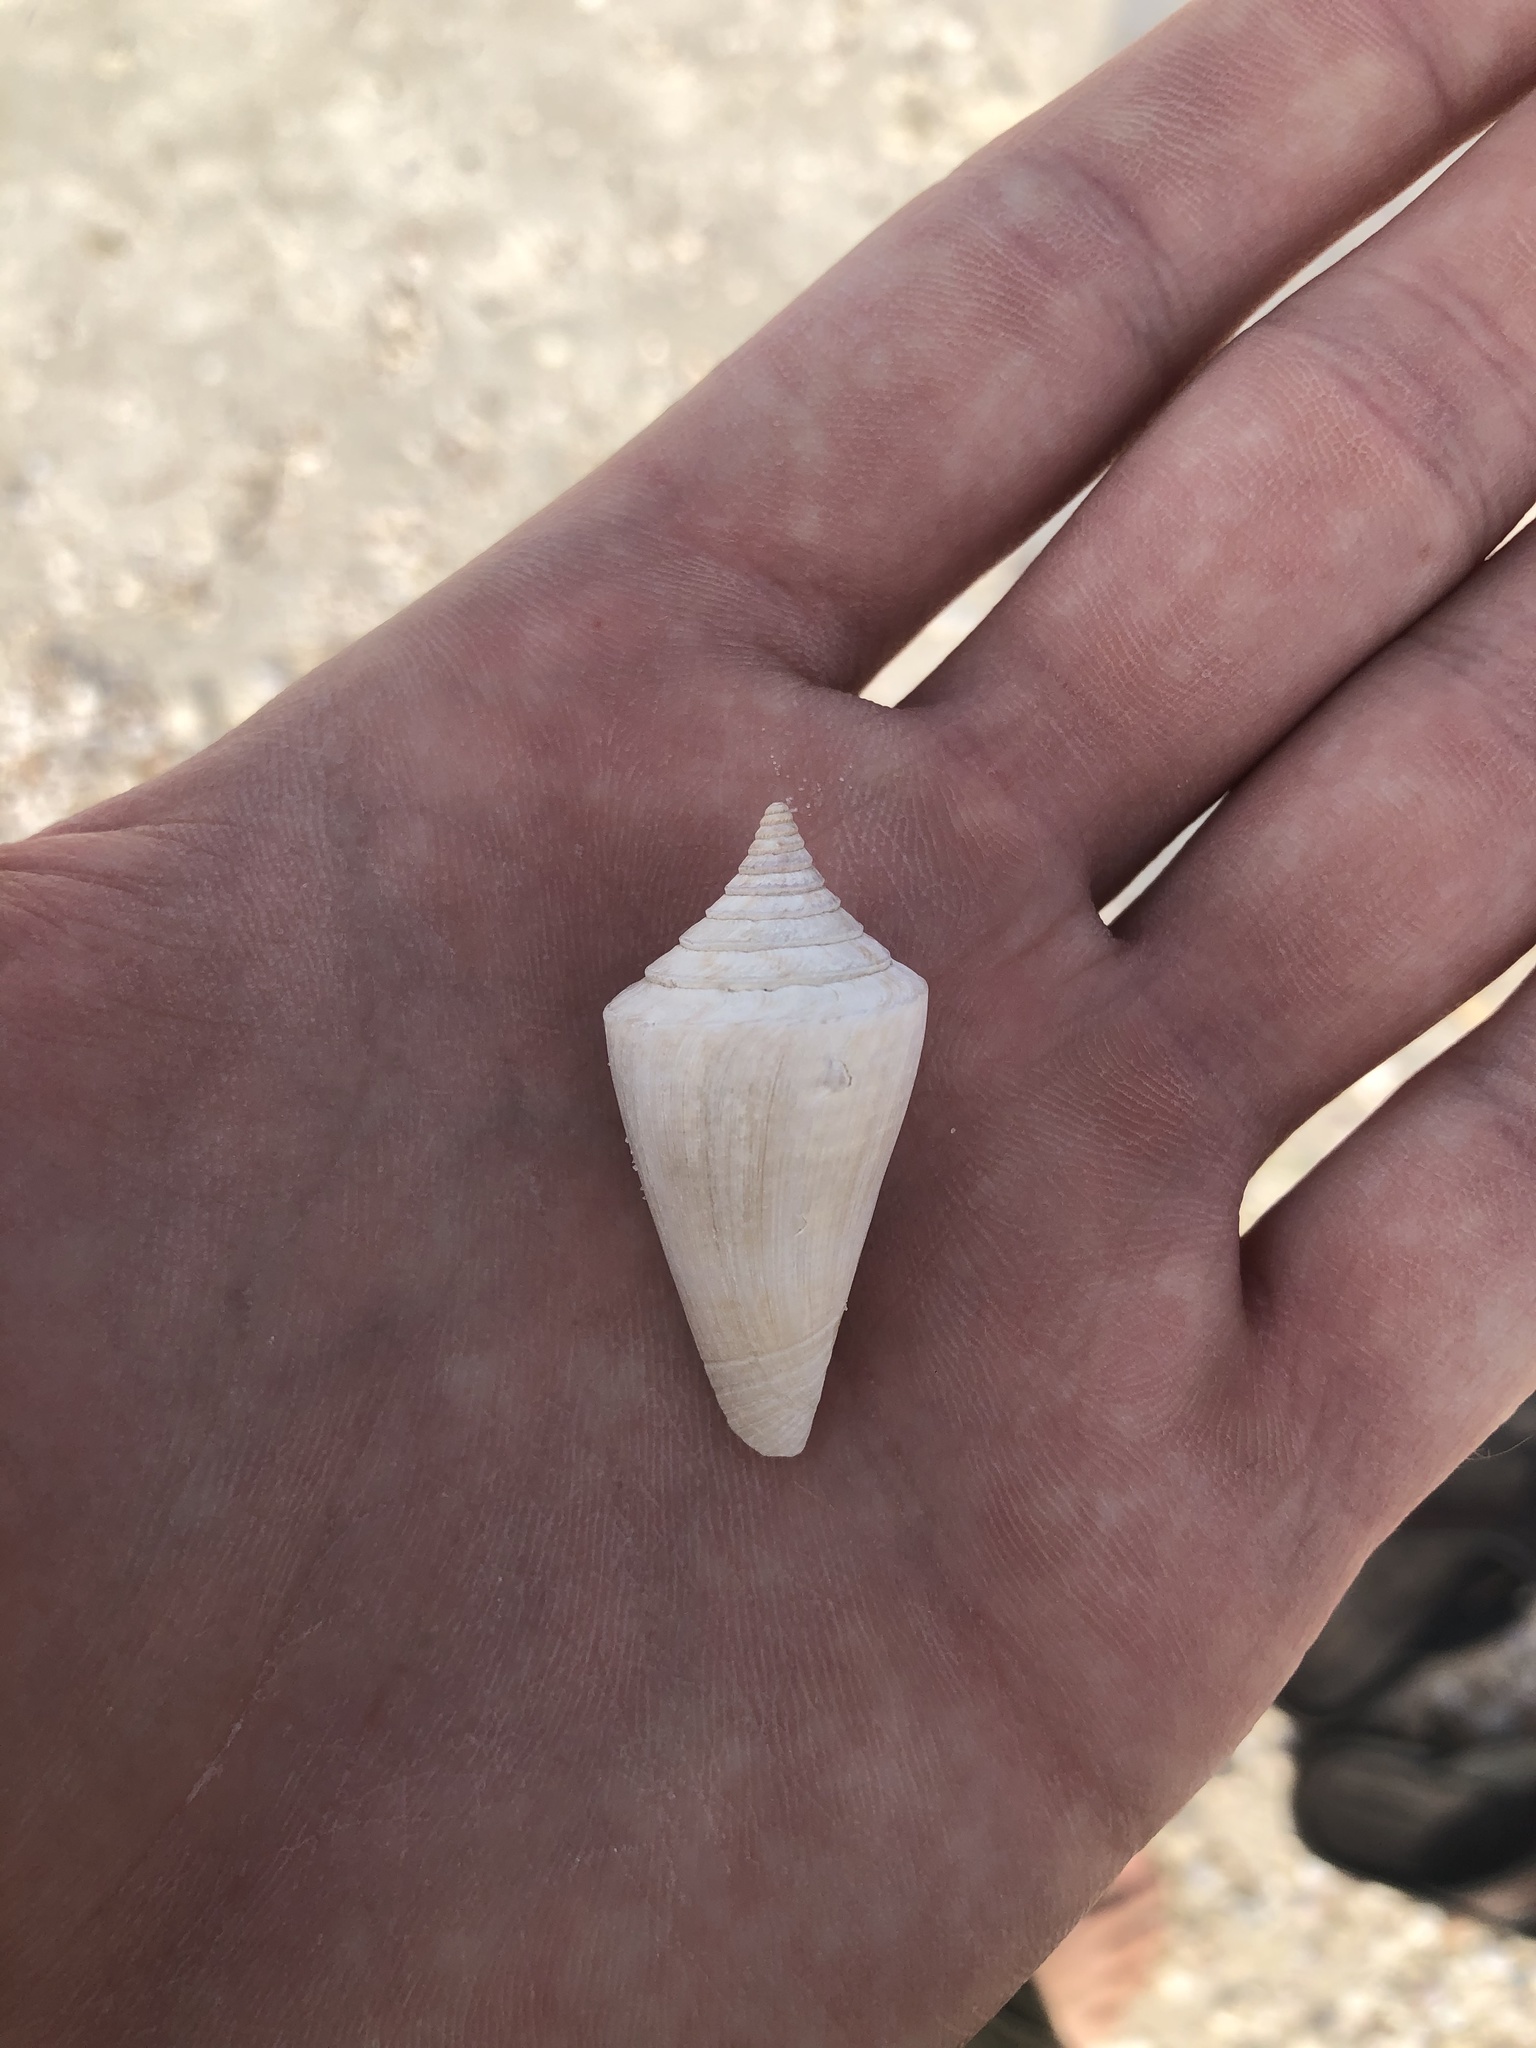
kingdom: Animalia
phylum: Mollusca
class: Gastropoda
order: Neogastropoda
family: Conidae
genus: Conus
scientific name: Conus scalaris
